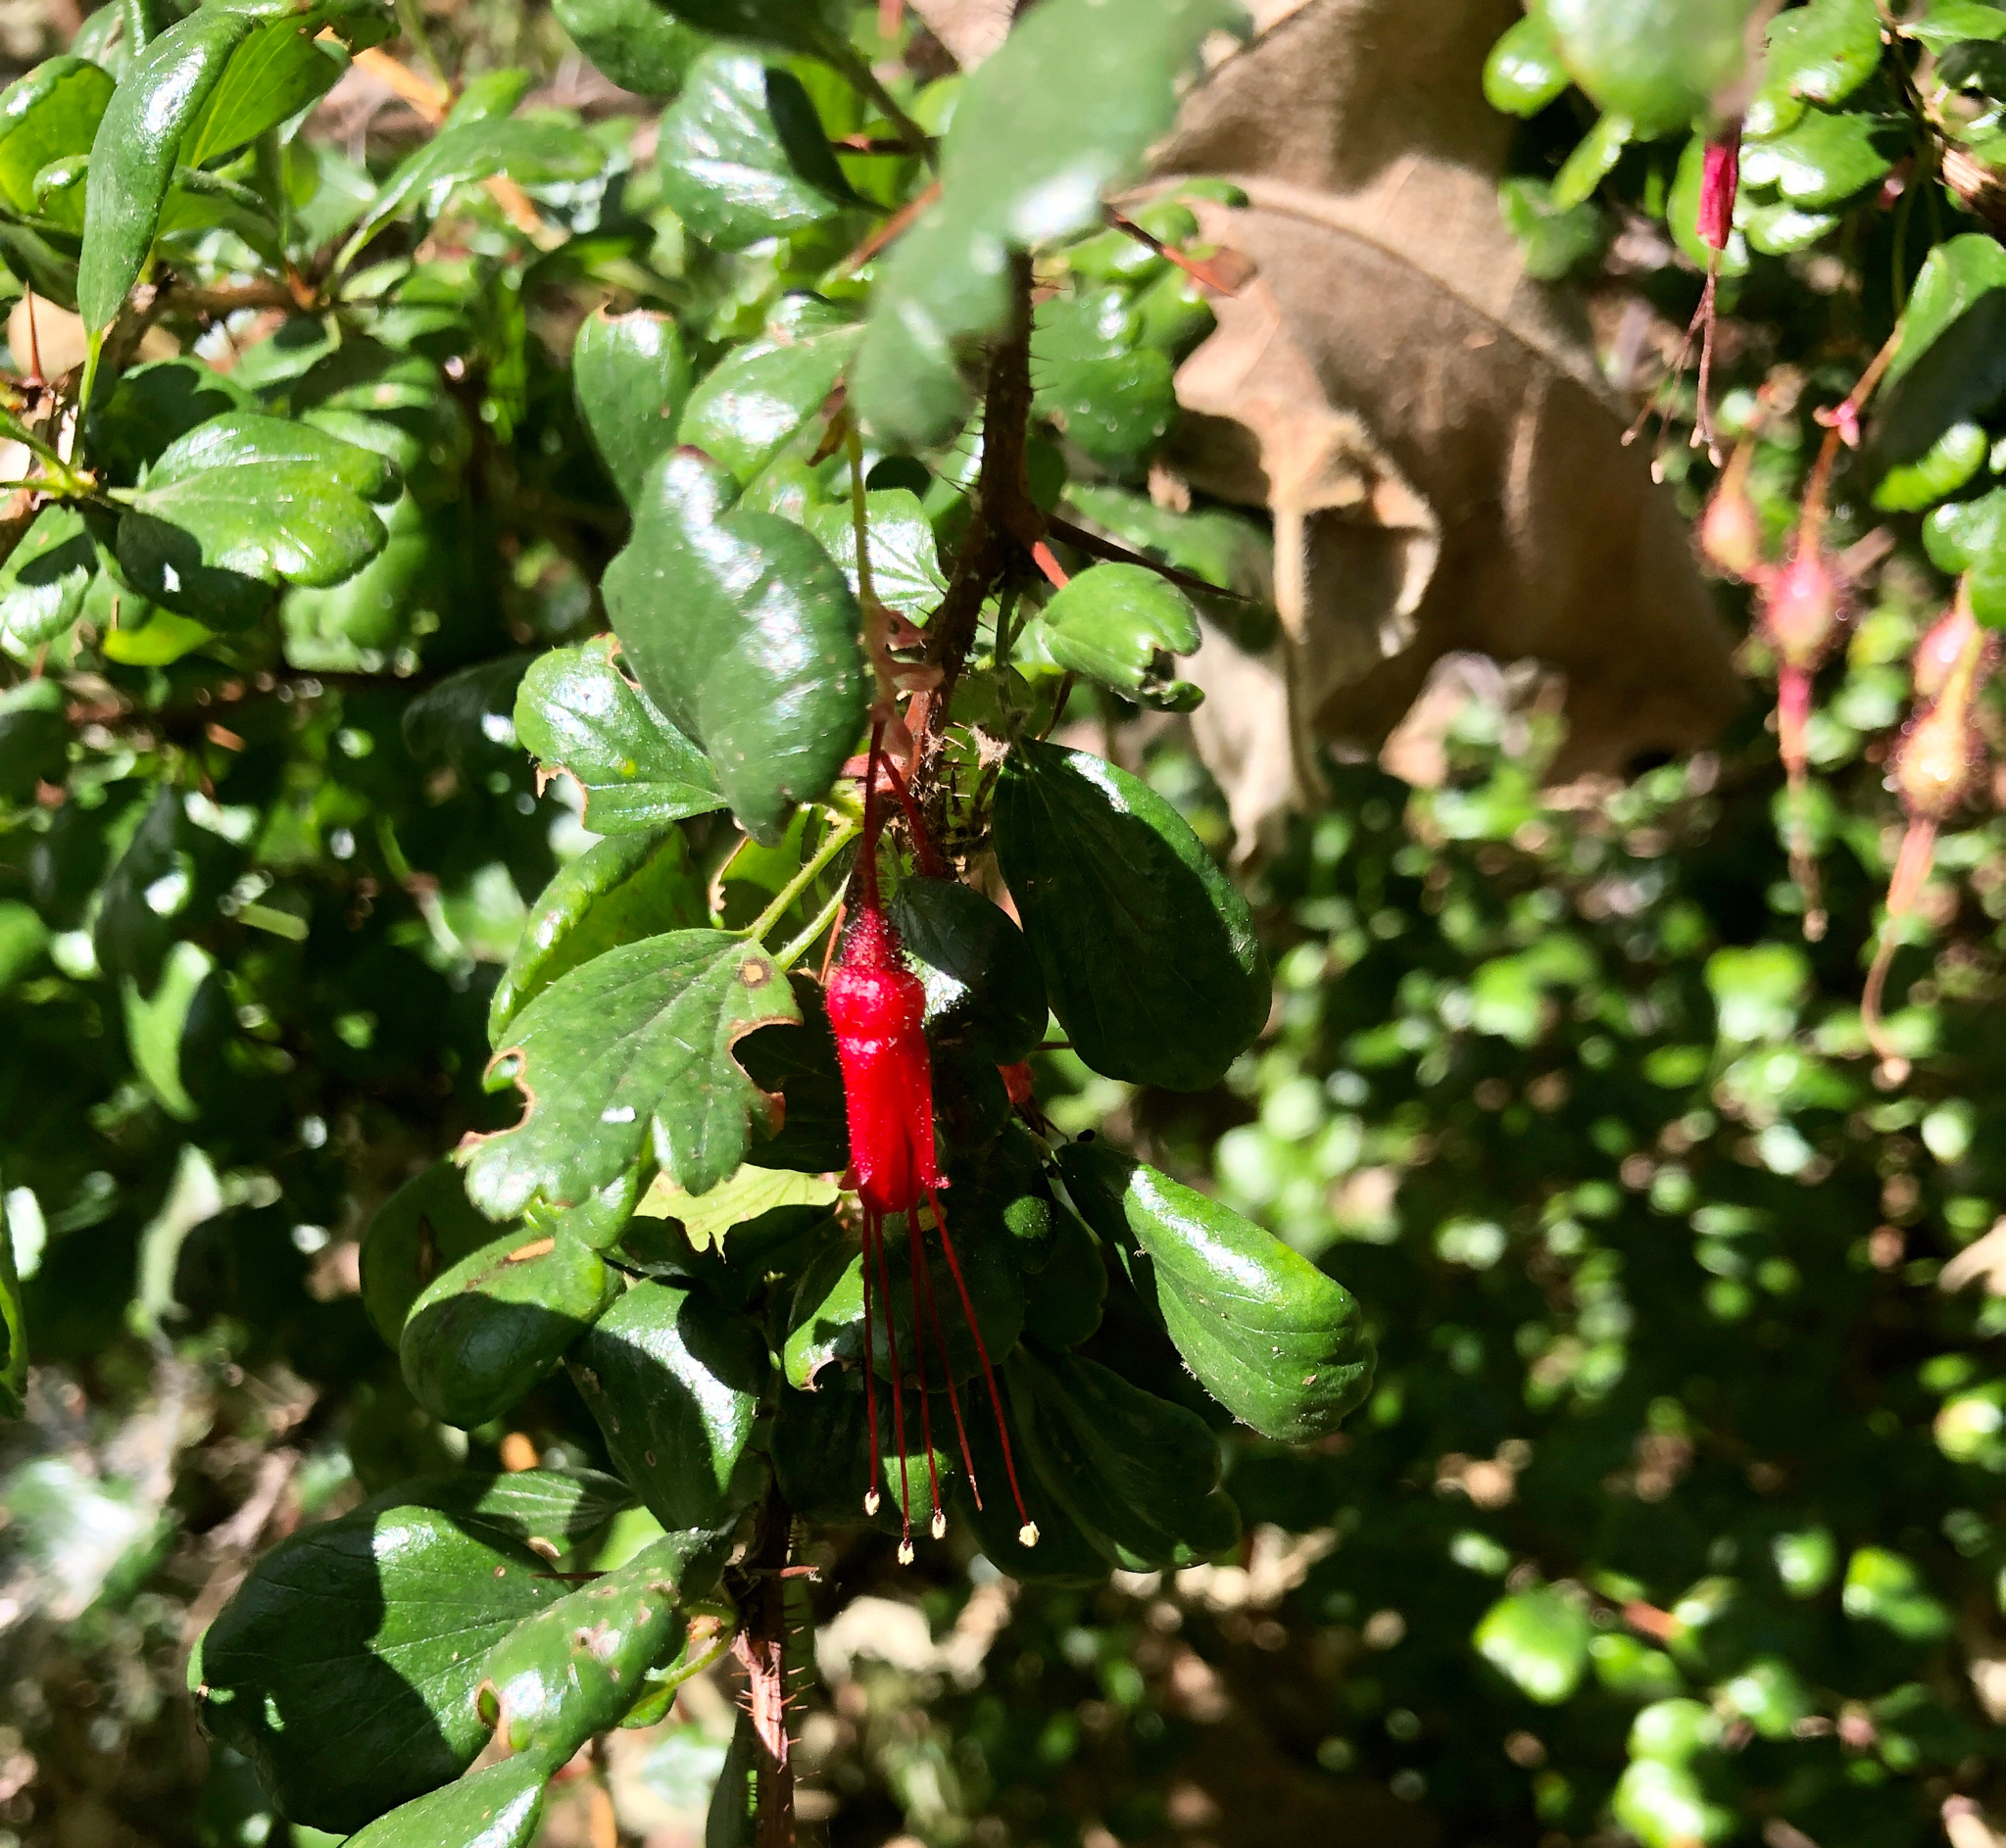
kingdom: Plantae
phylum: Tracheophyta
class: Magnoliopsida
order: Saxifragales
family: Grossulariaceae
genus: Ribes
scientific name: Ribes speciosum
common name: Fuchsia-flower gooseberry
